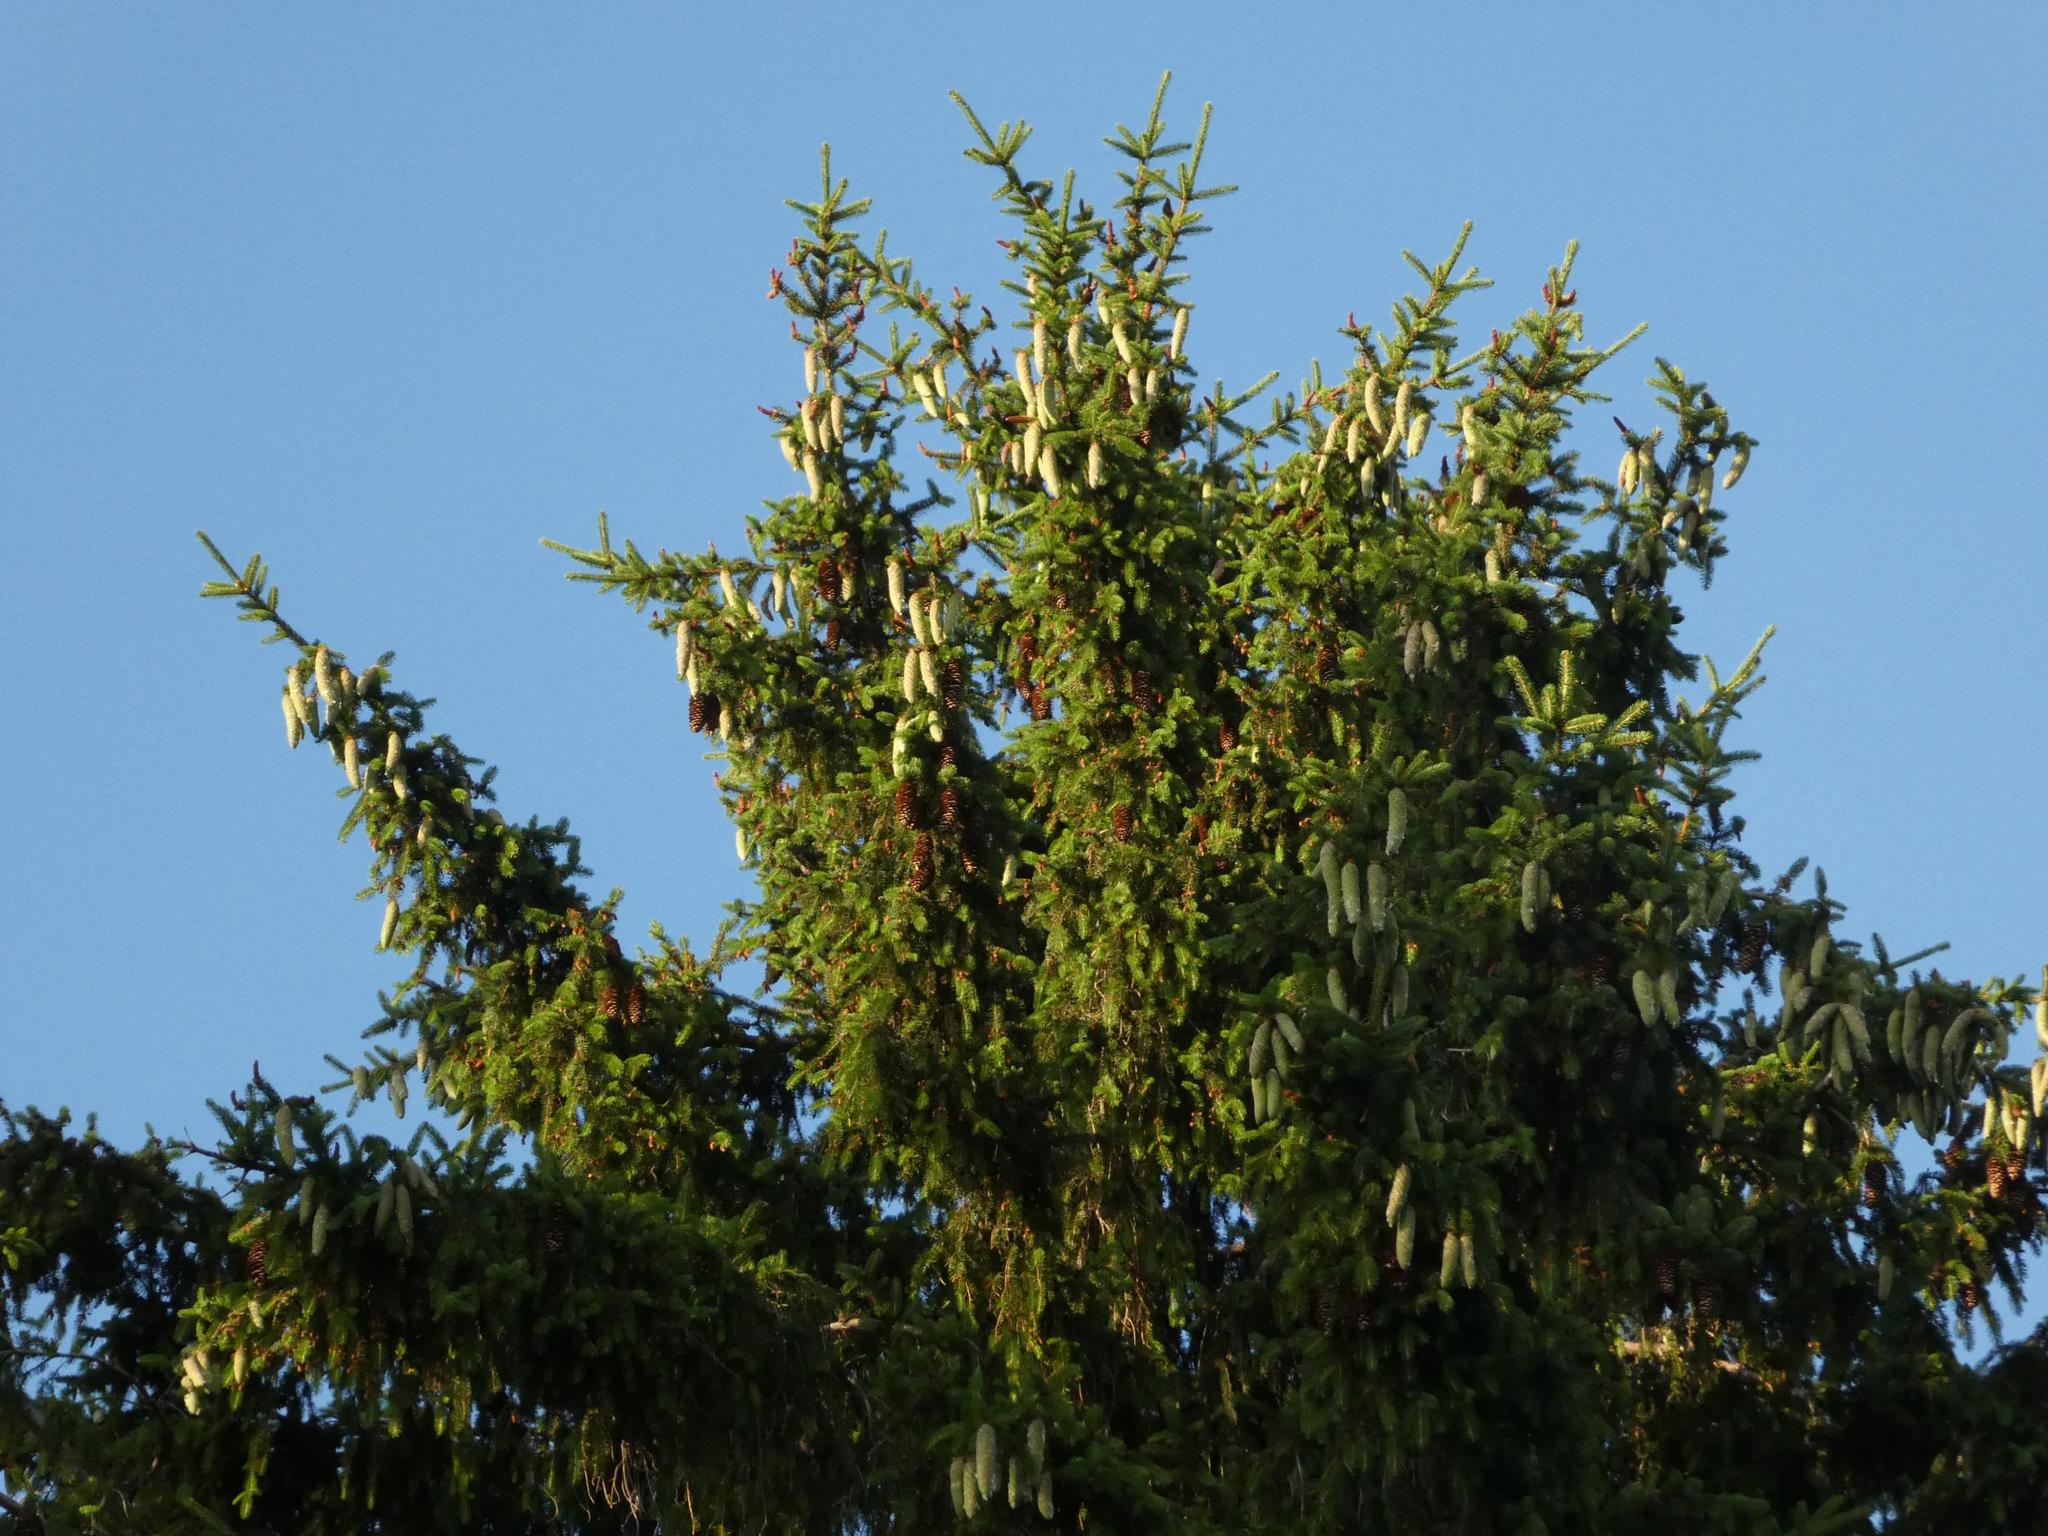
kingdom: Plantae
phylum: Tracheophyta
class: Pinopsida
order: Pinales
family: Pinaceae
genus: Picea
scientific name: Picea abies
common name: Norway spruce
